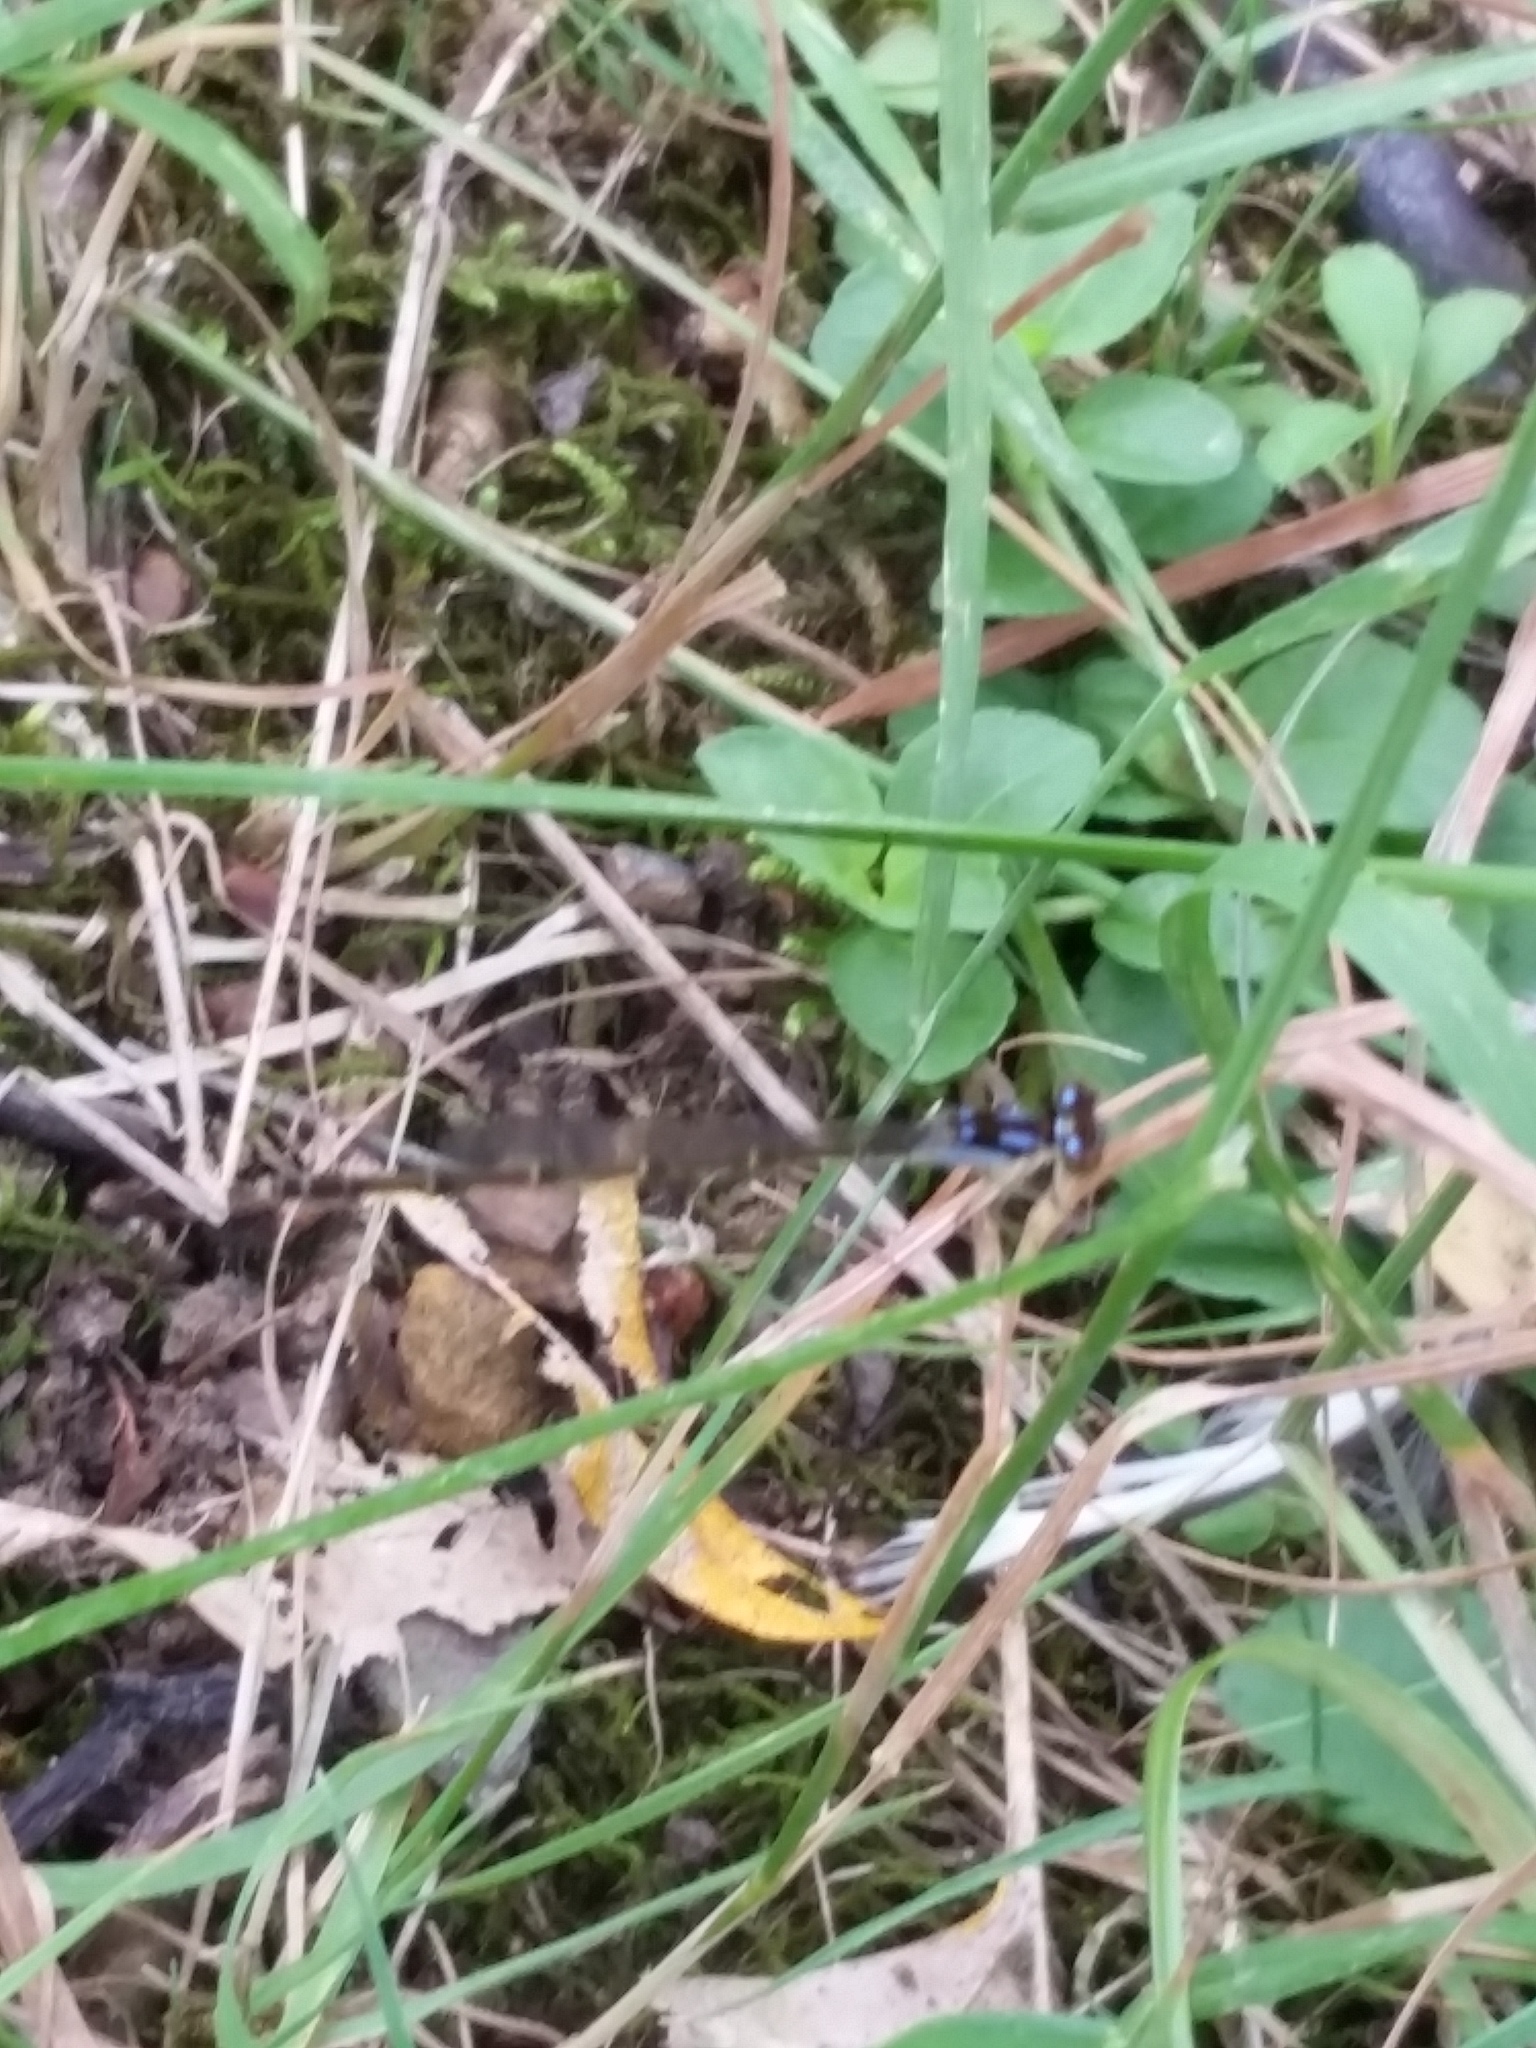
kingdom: Animalia
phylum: Arthropoda
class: Insecta
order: Odonata
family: Coenagrionidae
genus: Ischnura
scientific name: Ischnura posita
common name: Fragile forktail
